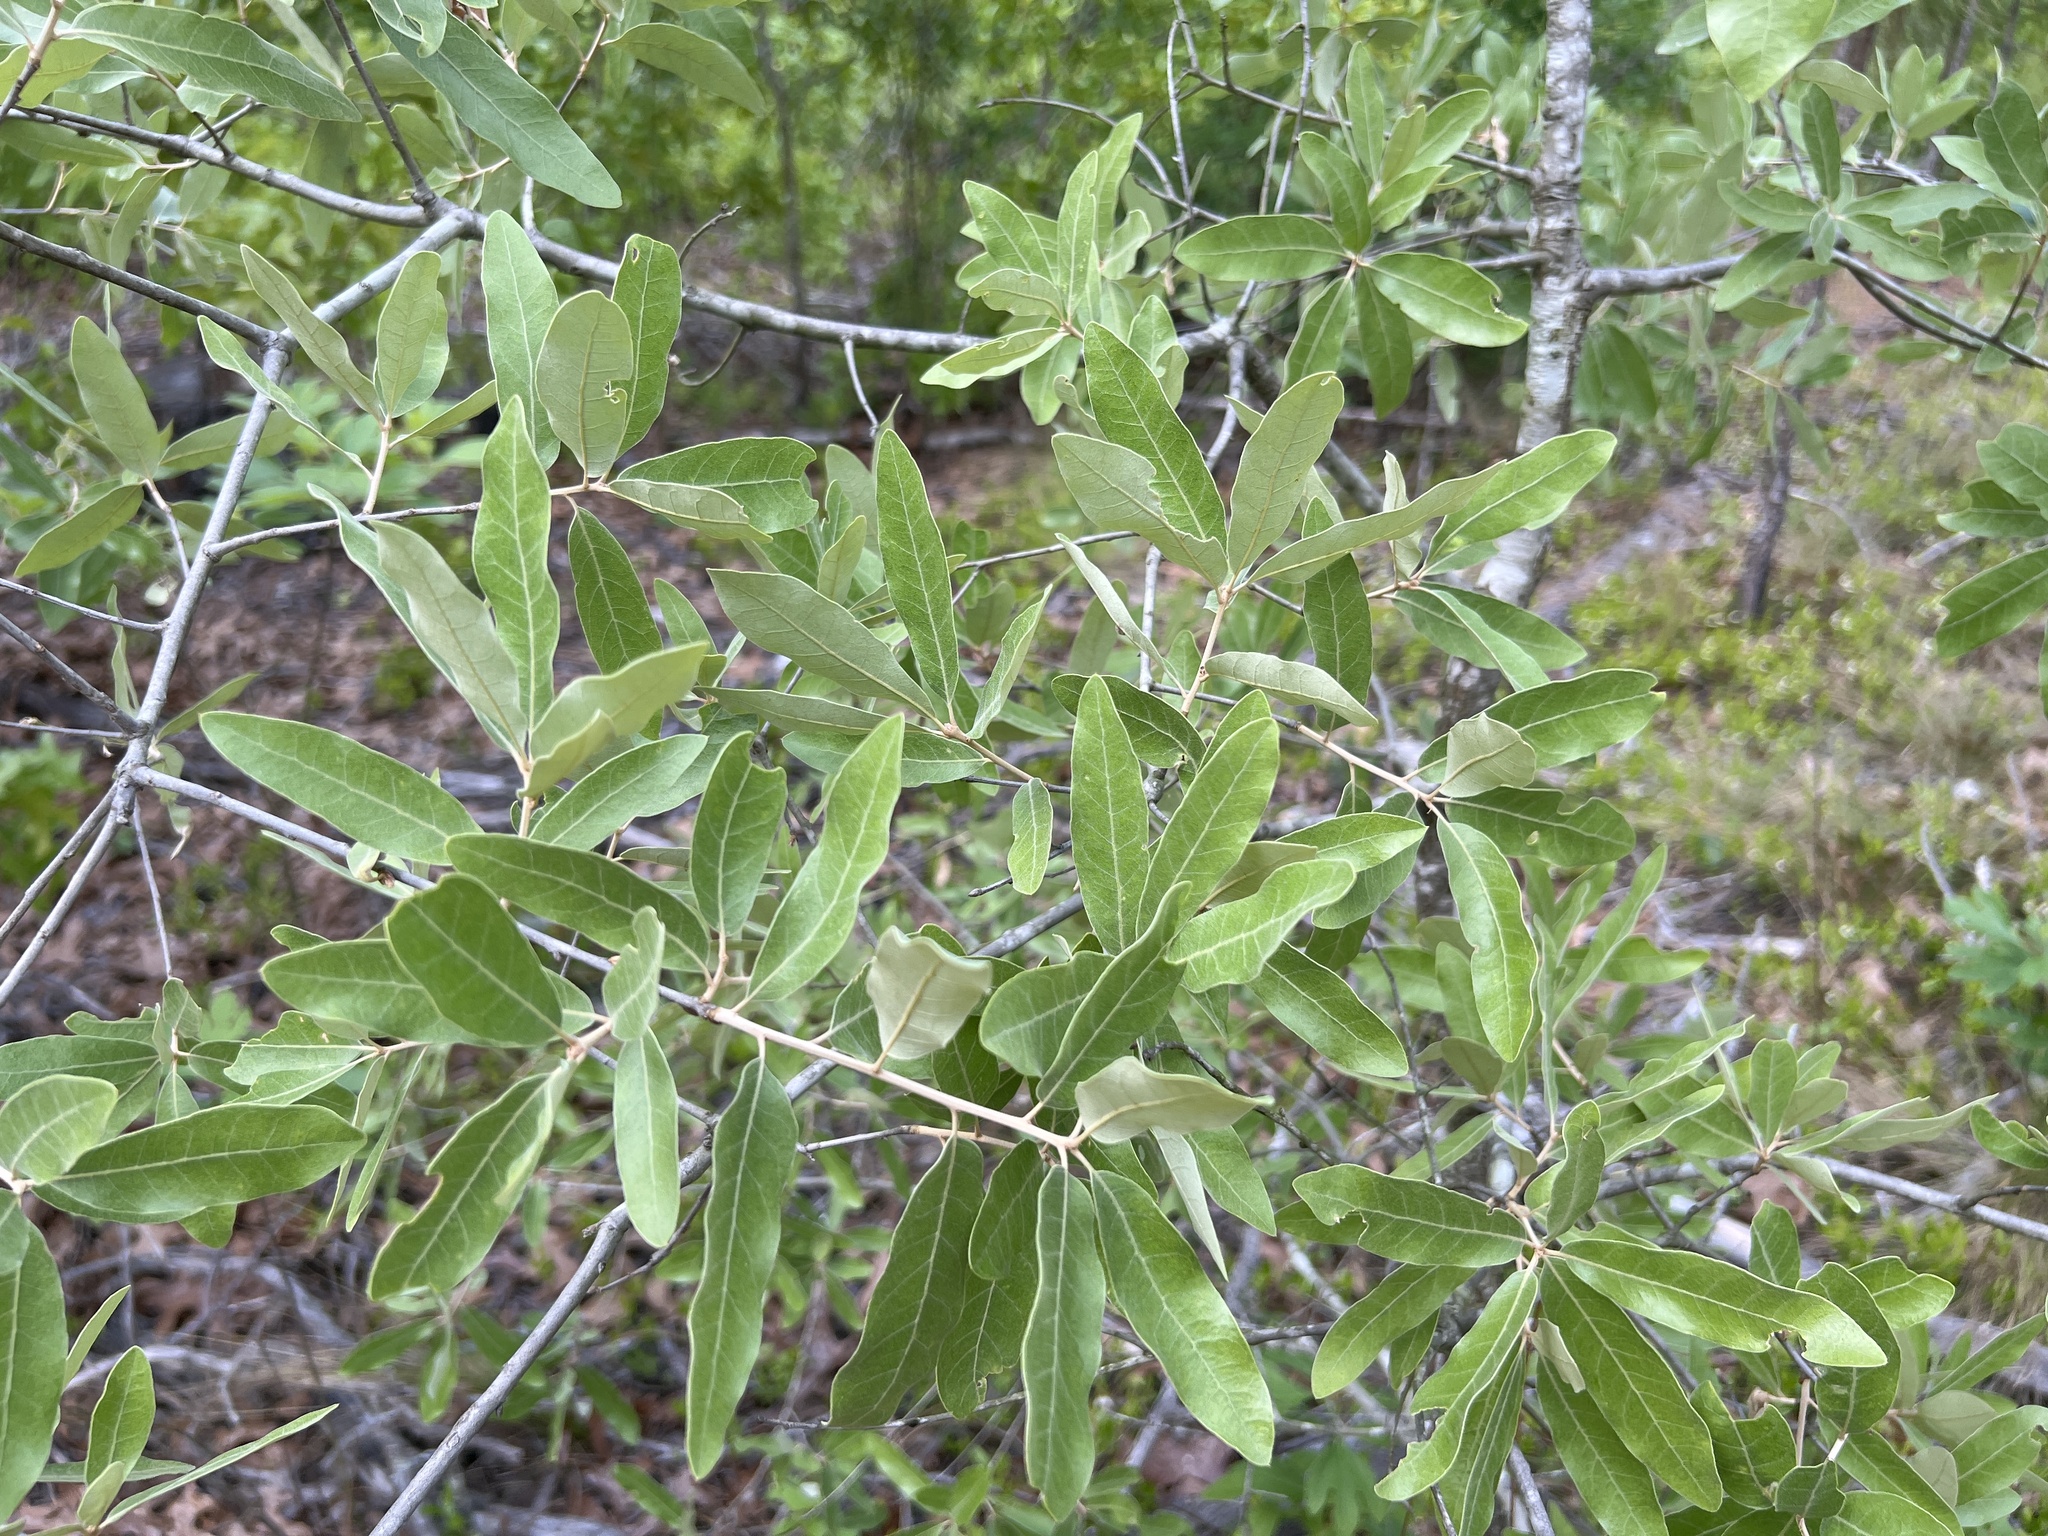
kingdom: Plantae
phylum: Tracheophyta
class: Magnoliopsida
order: Fagales
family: Fagaceae
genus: Quercus
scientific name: Quercus incana
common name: Bluejack oak
